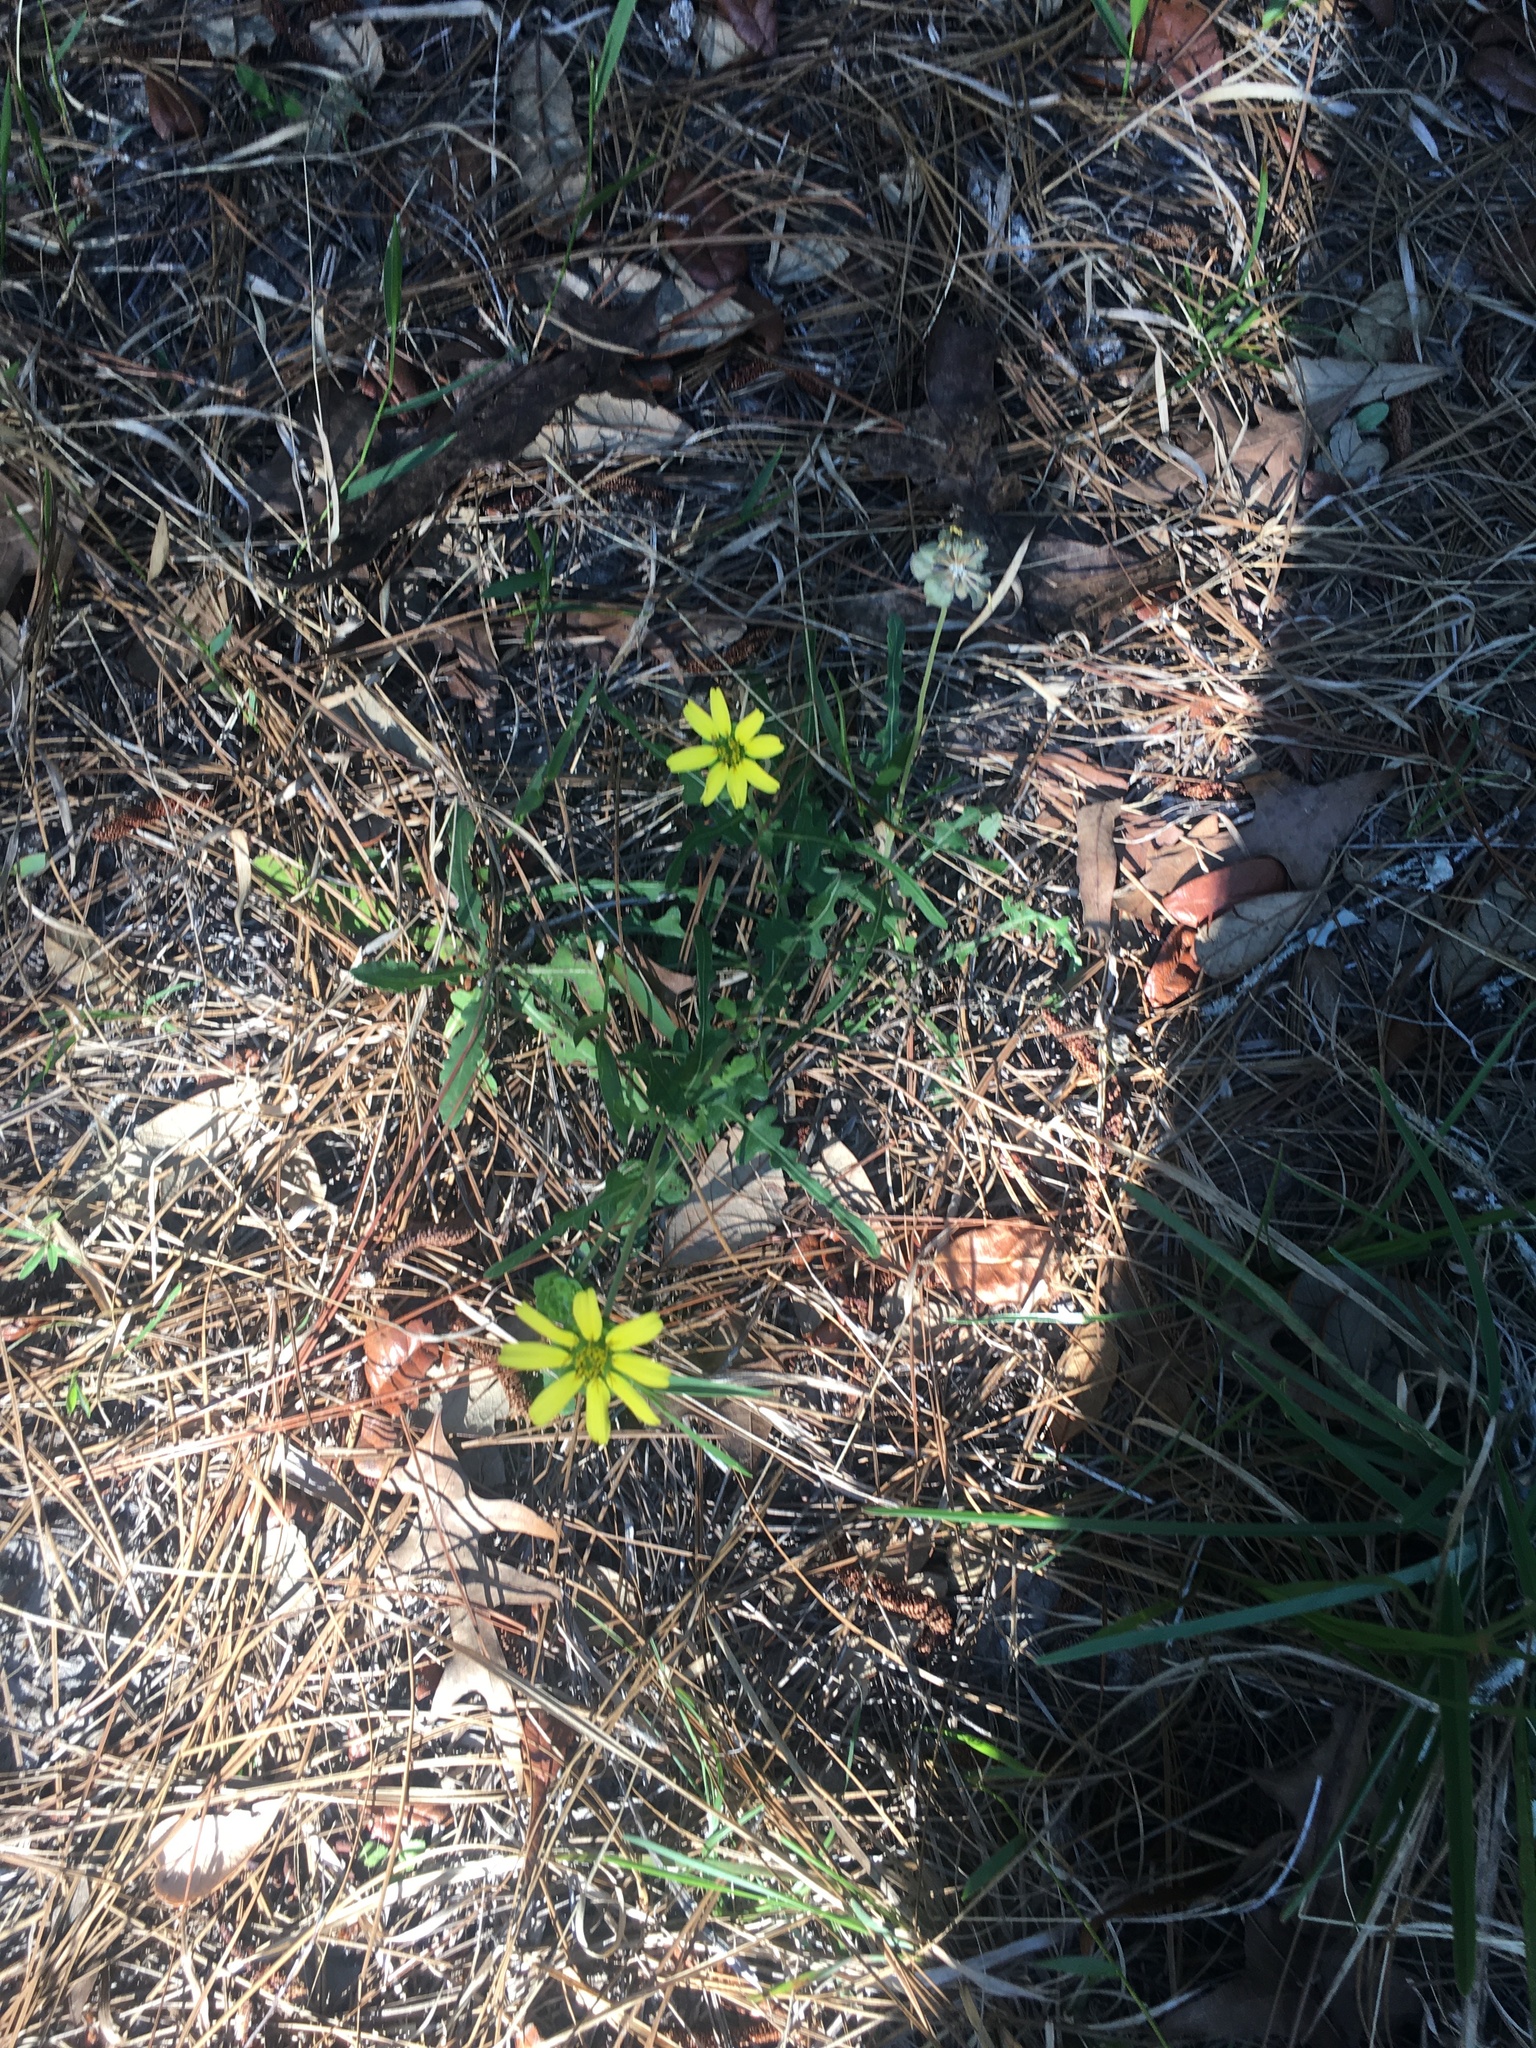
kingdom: Plantae
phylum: Tracheophyta
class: Magnoliopsida
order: Asterales
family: Asteraceae
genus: Berlandiera
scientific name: Berlandiera subacaulis
